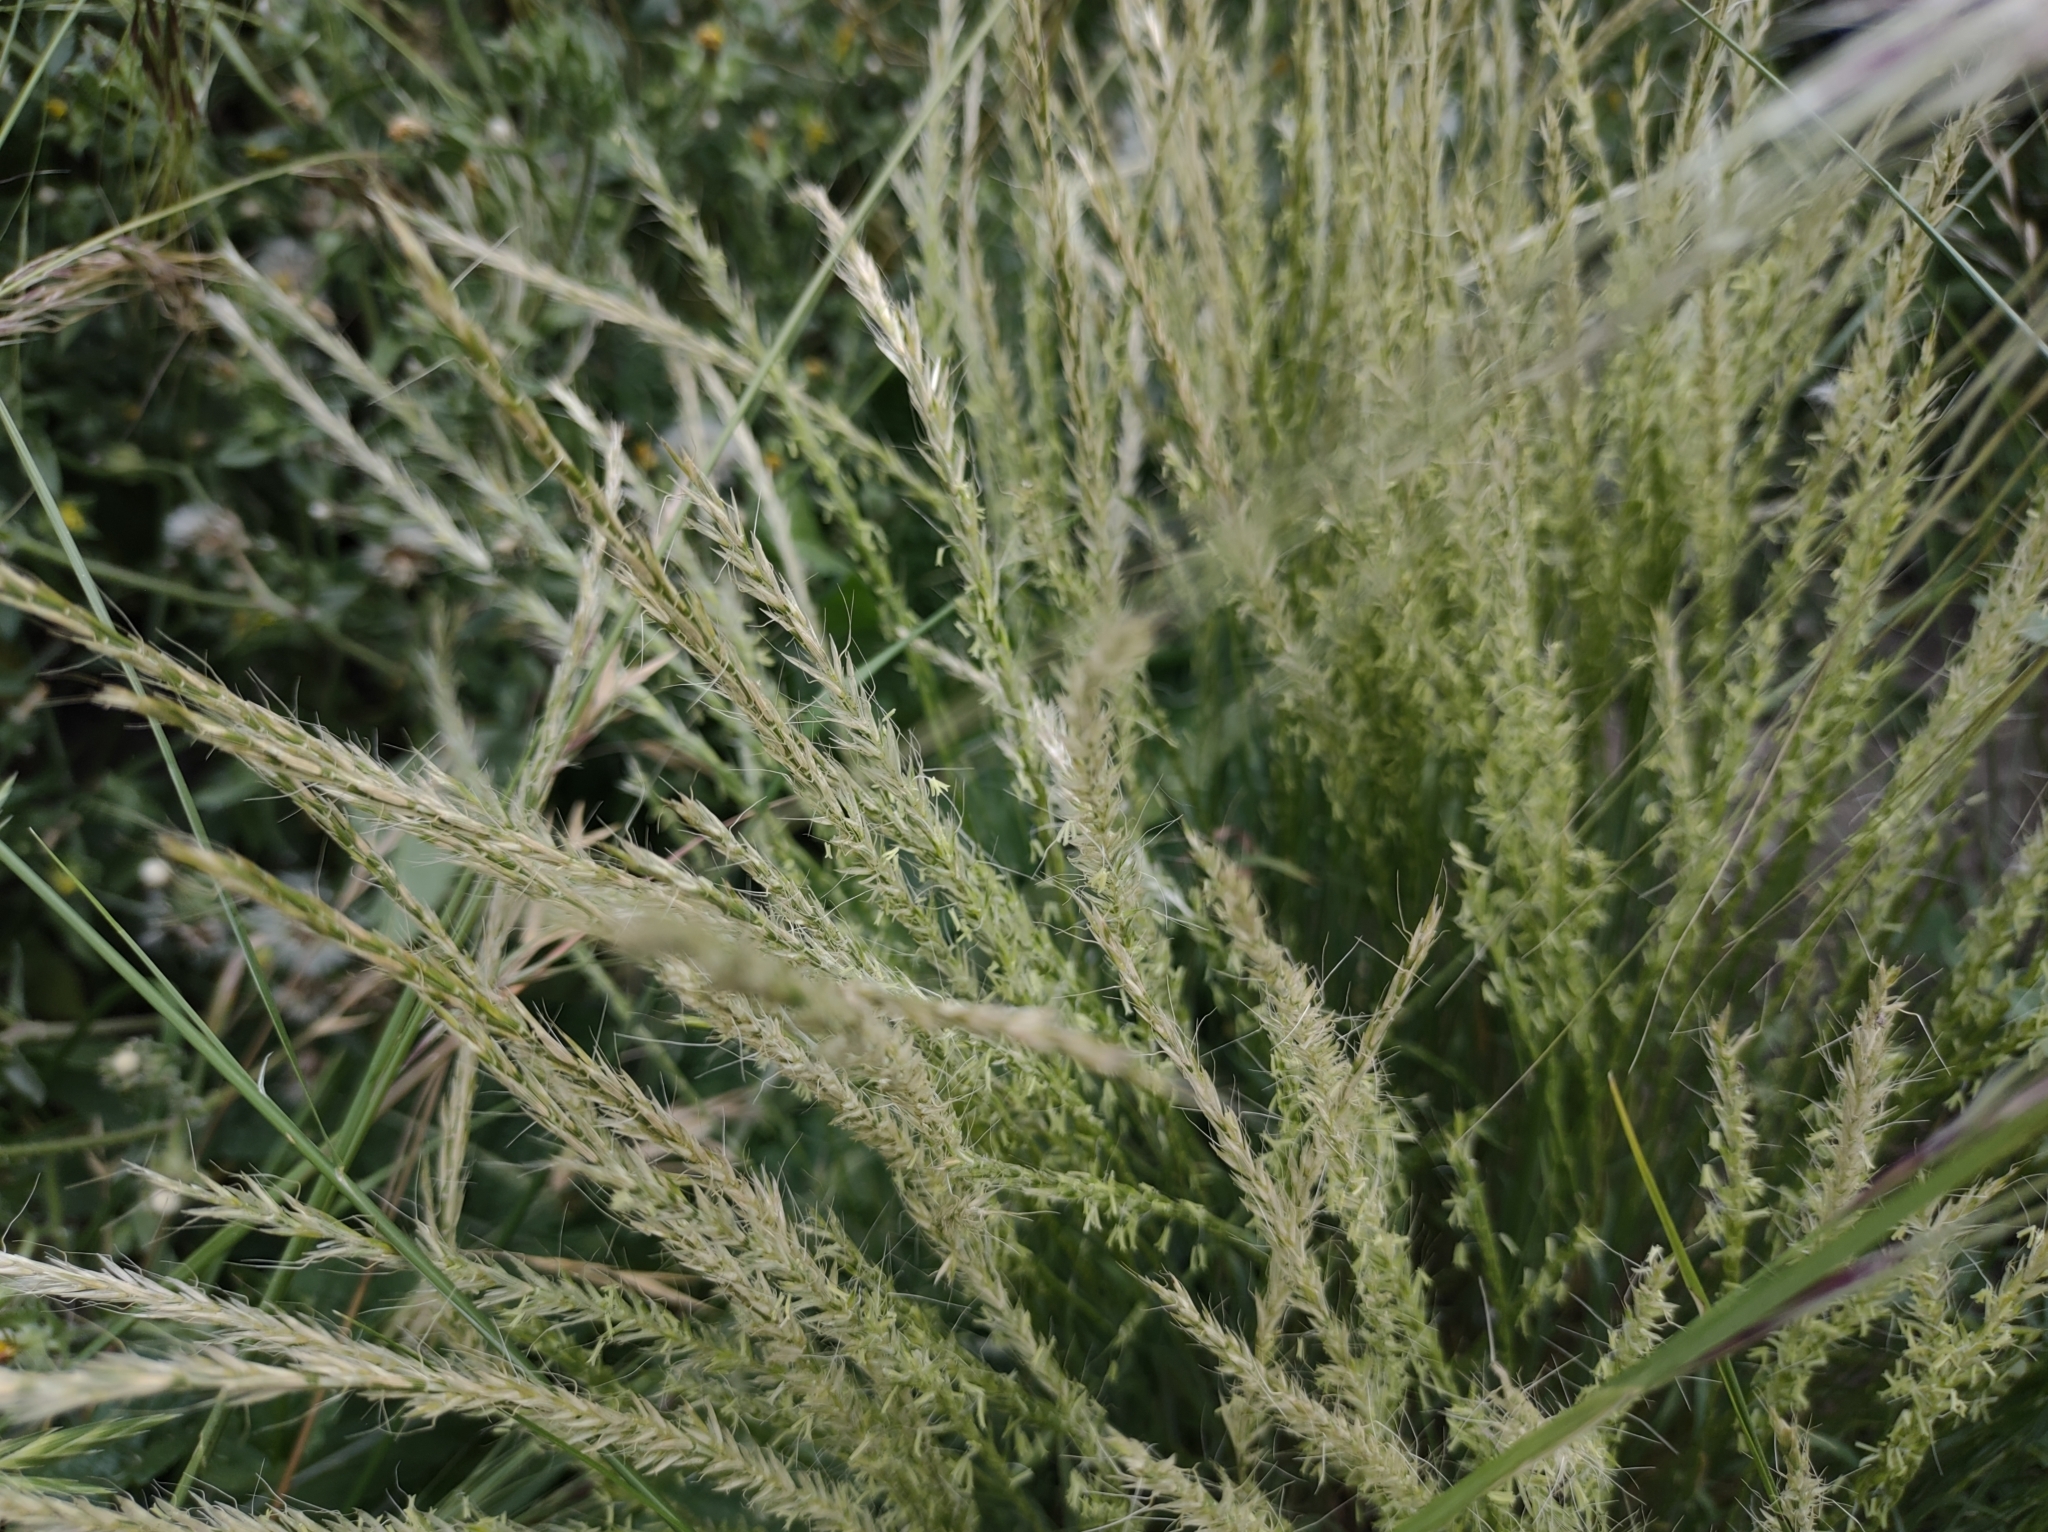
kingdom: Plantae
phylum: Tracheophyta
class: Liliopsida
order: Poales
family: Poaceae
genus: Gaudinia
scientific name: Gaudinia fragilis
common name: French oat-grass
